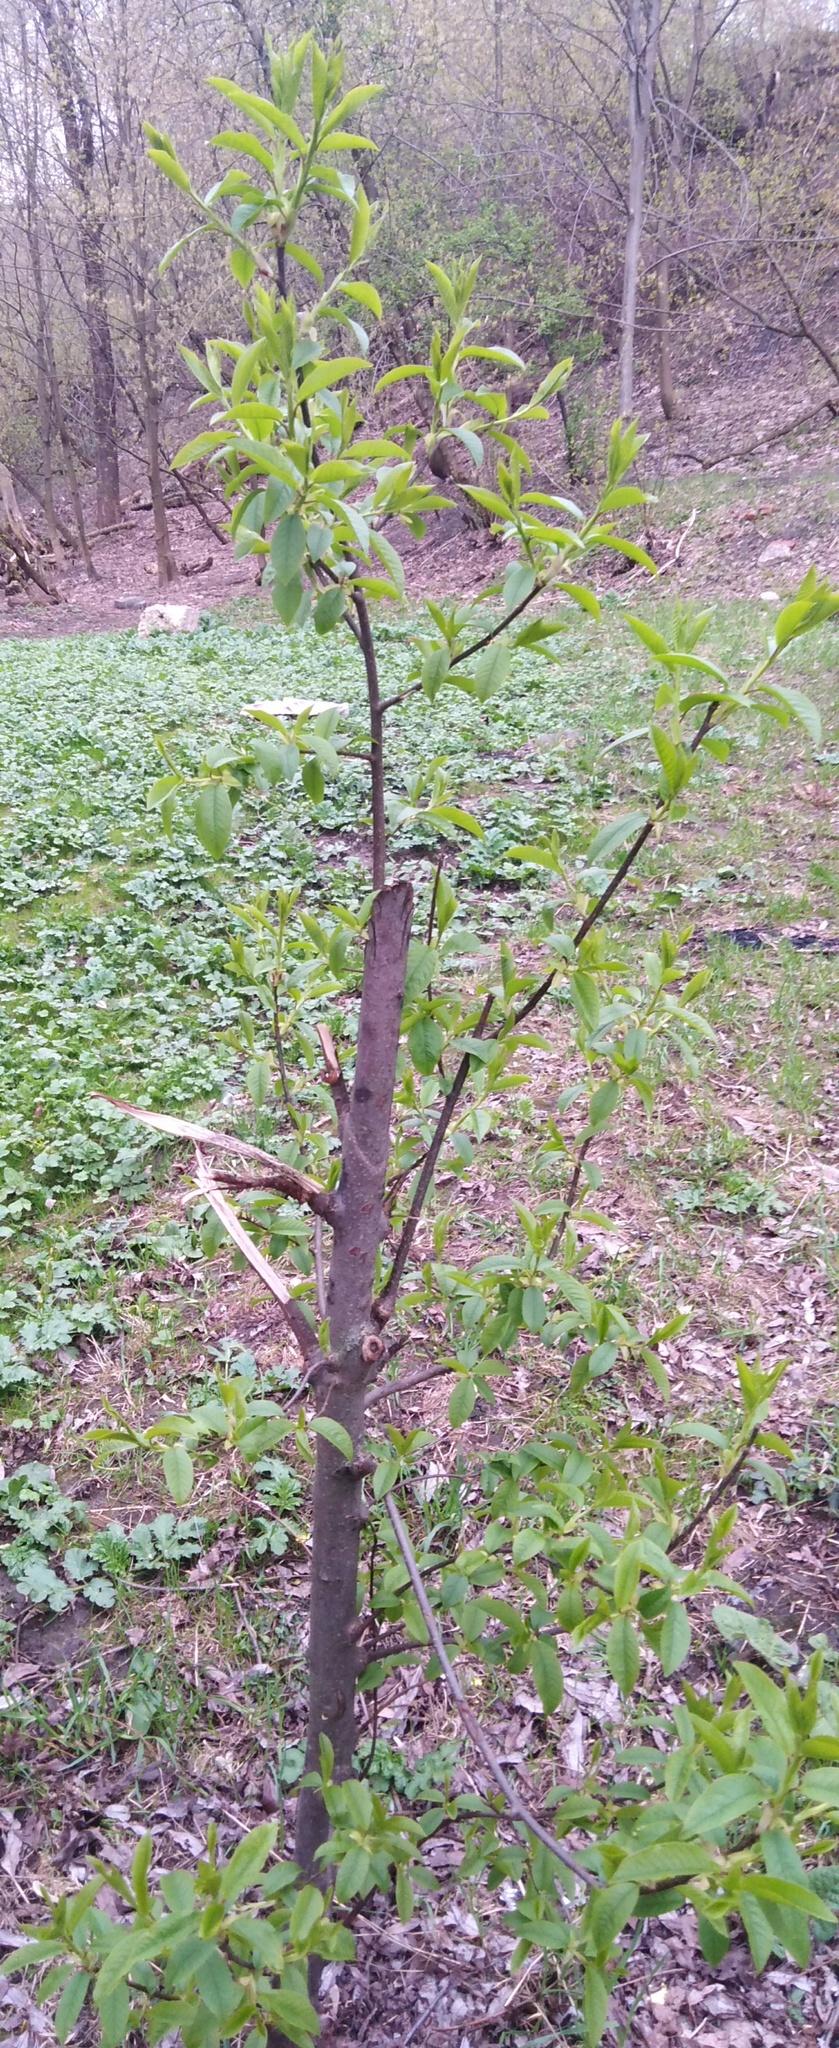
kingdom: Plantae
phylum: Tracheophyta
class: Magnoliopsida
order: Rosales
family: Rosaceae
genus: Prunus
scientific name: Prunus padus
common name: Bird cherry
